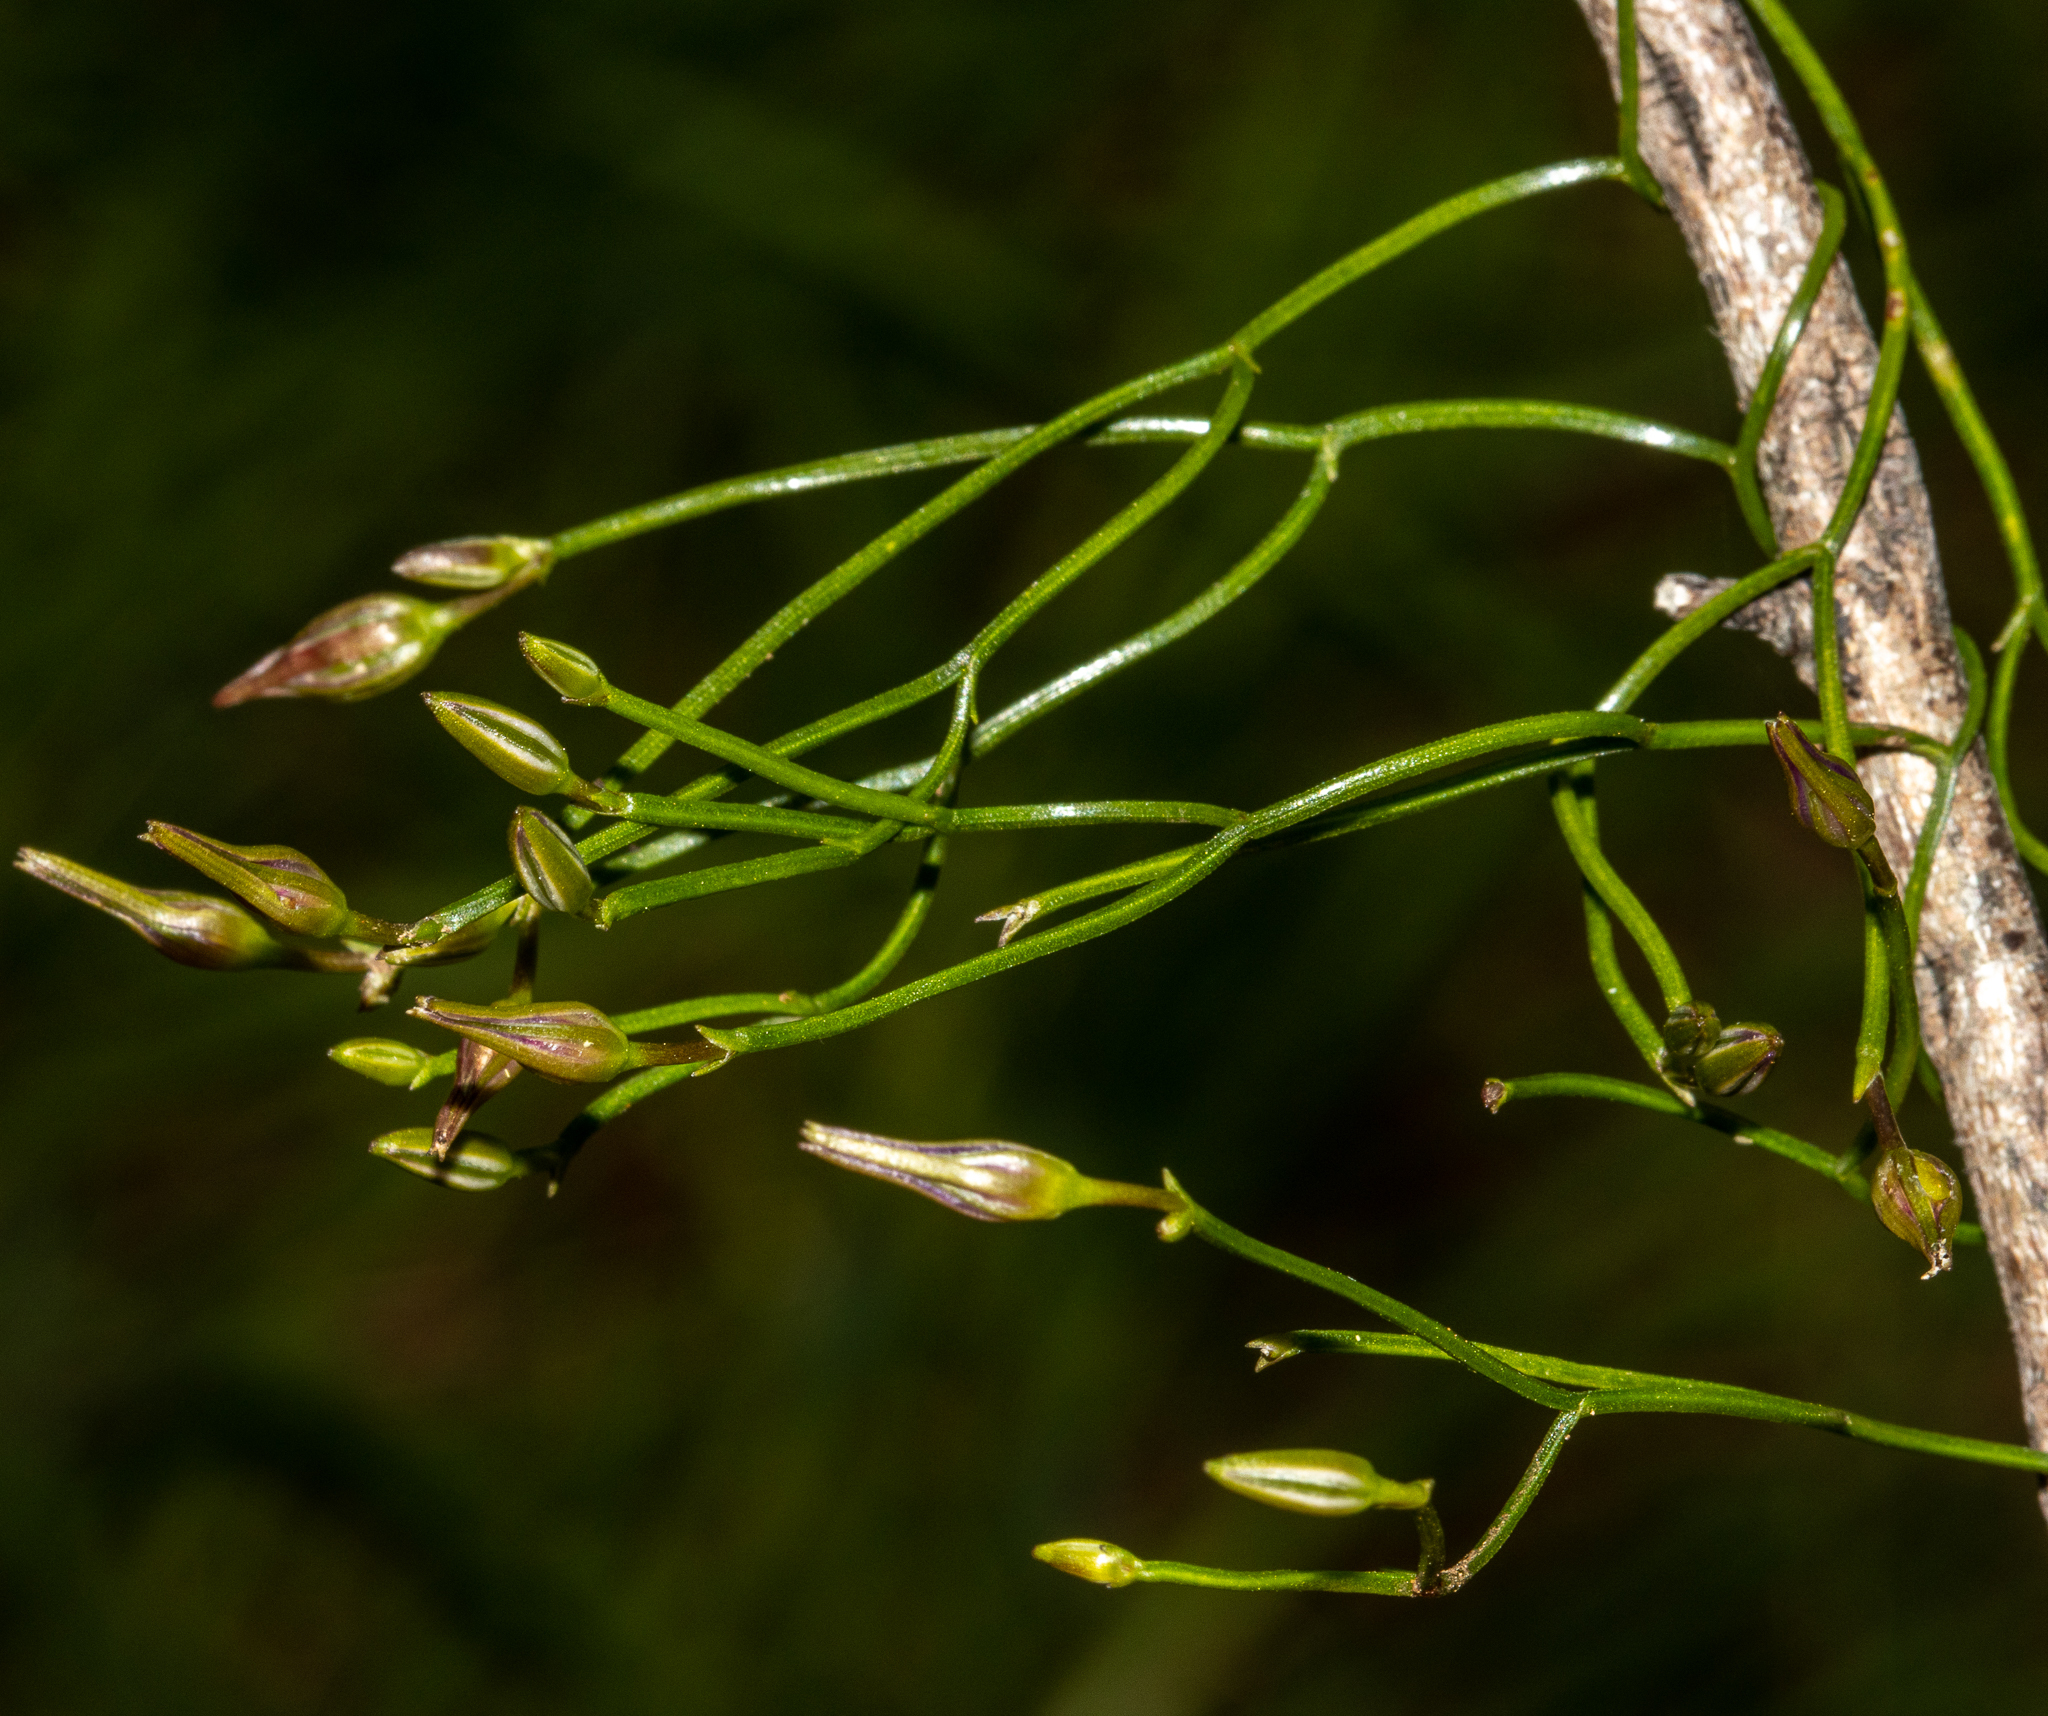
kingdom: Plantae
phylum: Tracheophyta
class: Liliopsida
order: Asparagales
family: Asparagaceae
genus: Thysanotus
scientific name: Thysanotus patersonii
